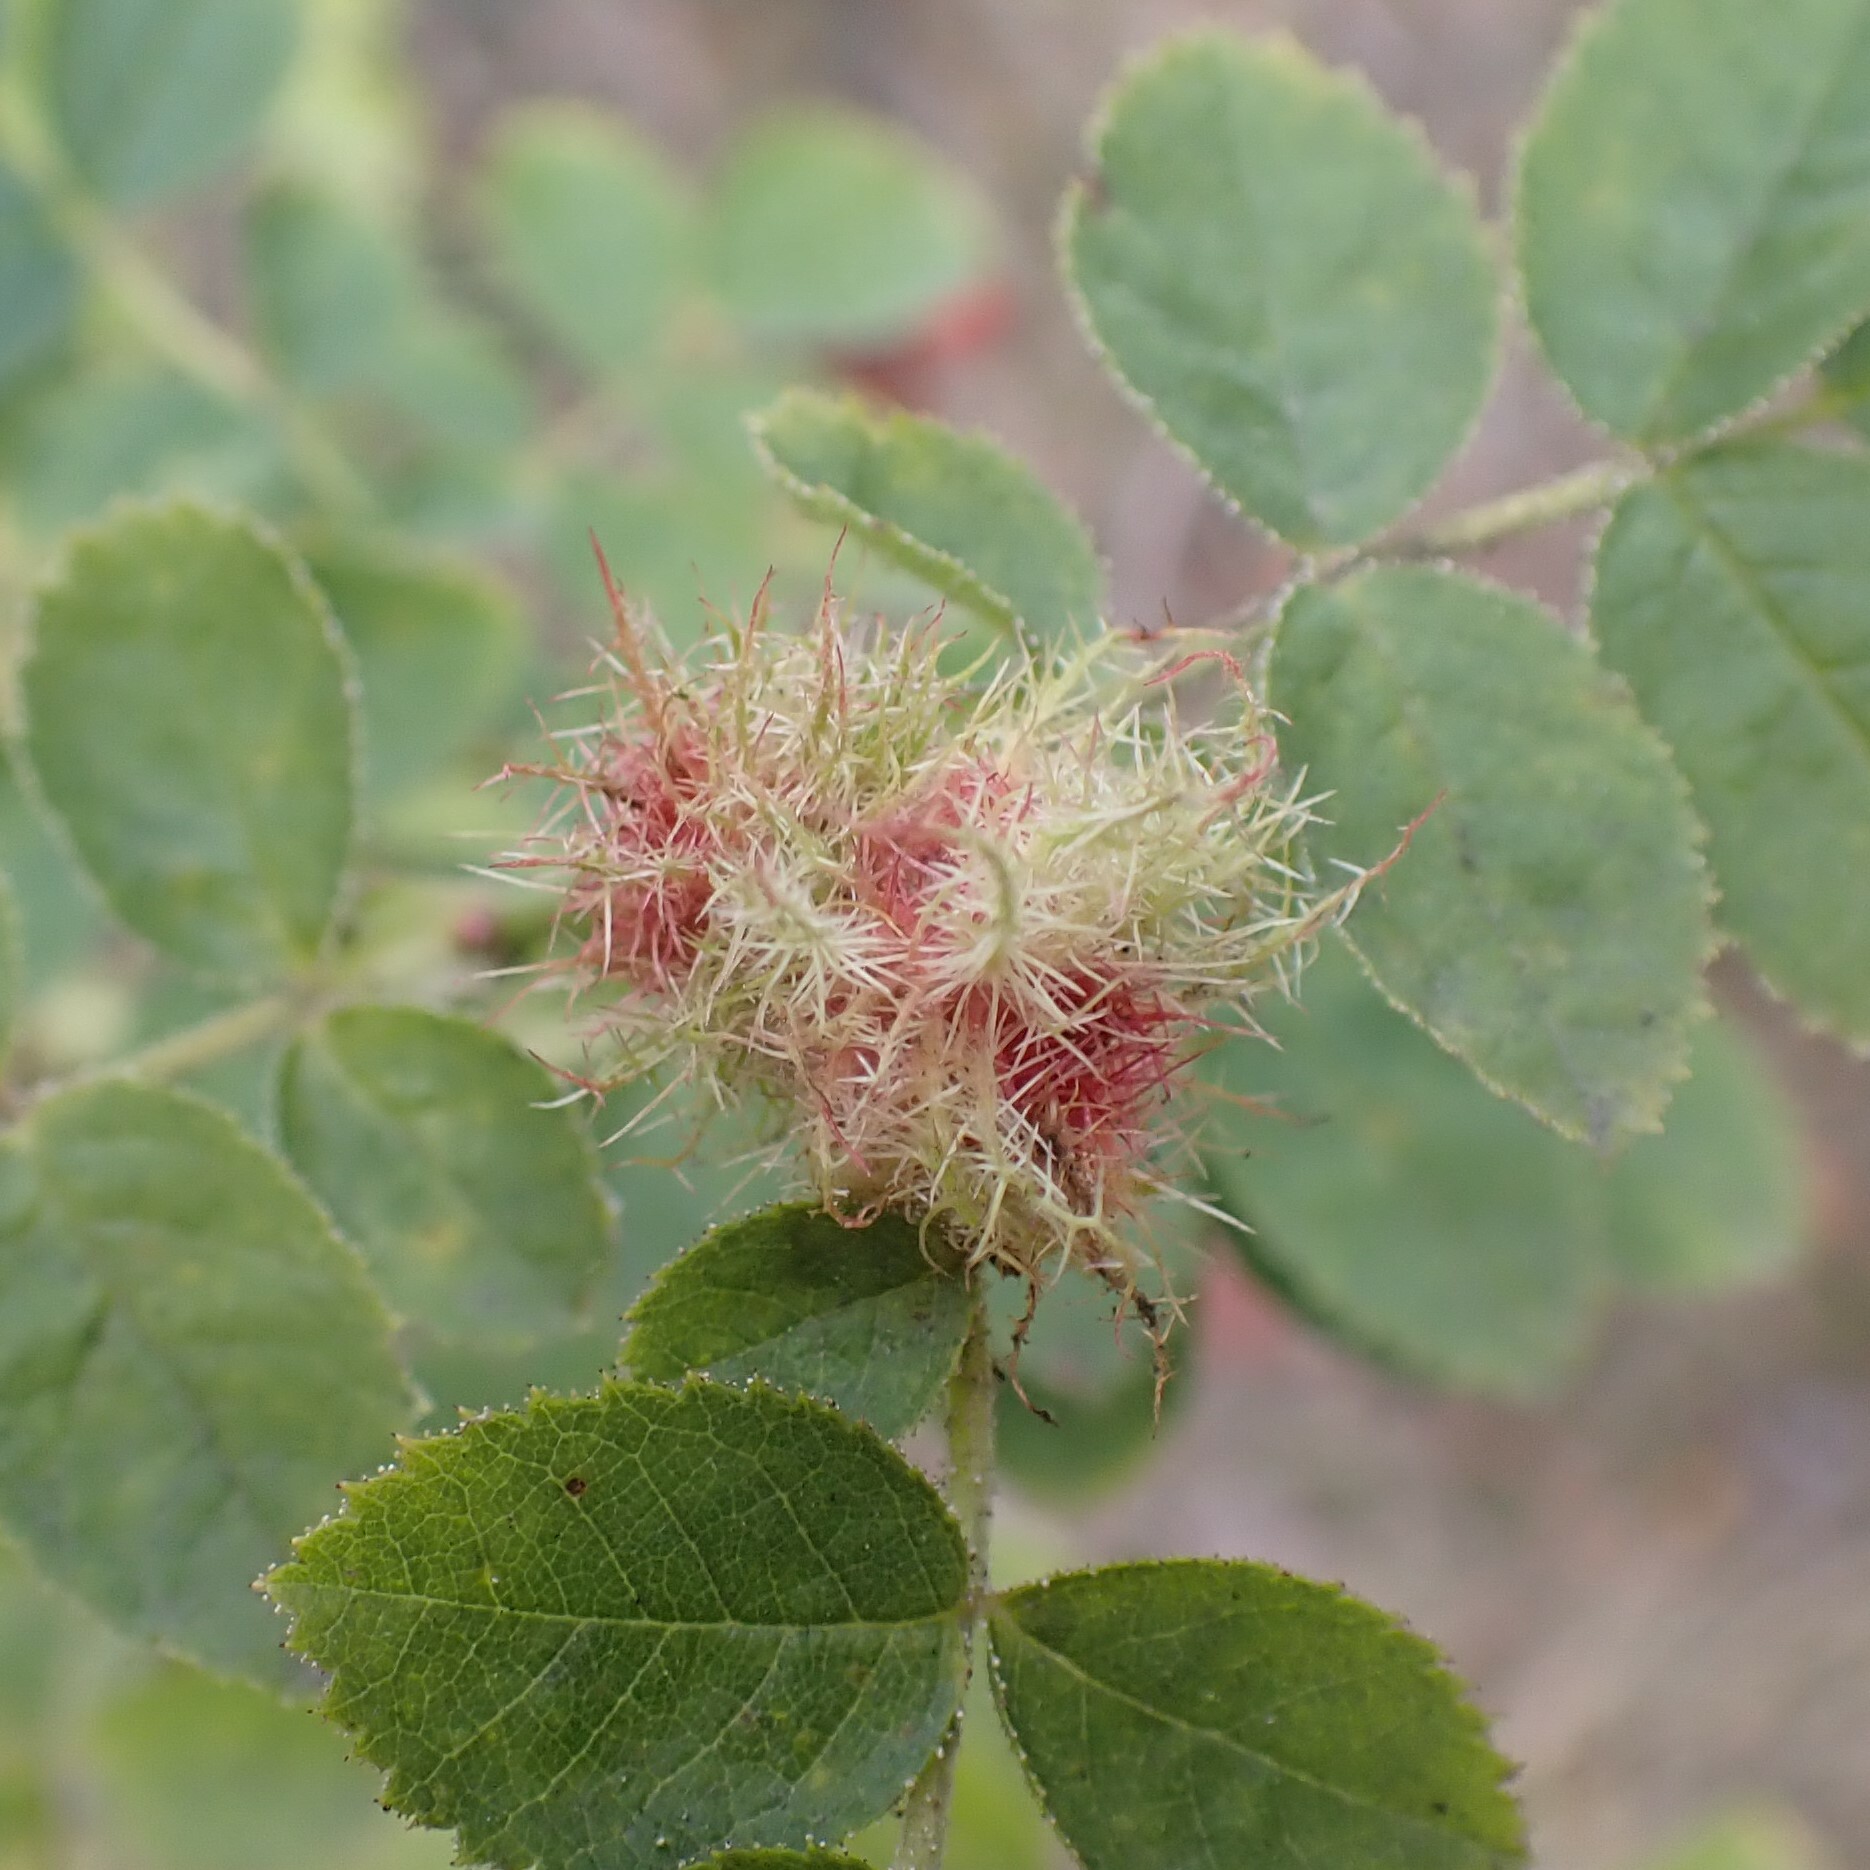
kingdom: Animalia
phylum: Arthropoda
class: Insecta
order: Hymenoptera
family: Cynipidae
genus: Diplolepis
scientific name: Diplolepis rosae
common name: Bedeguar gall
